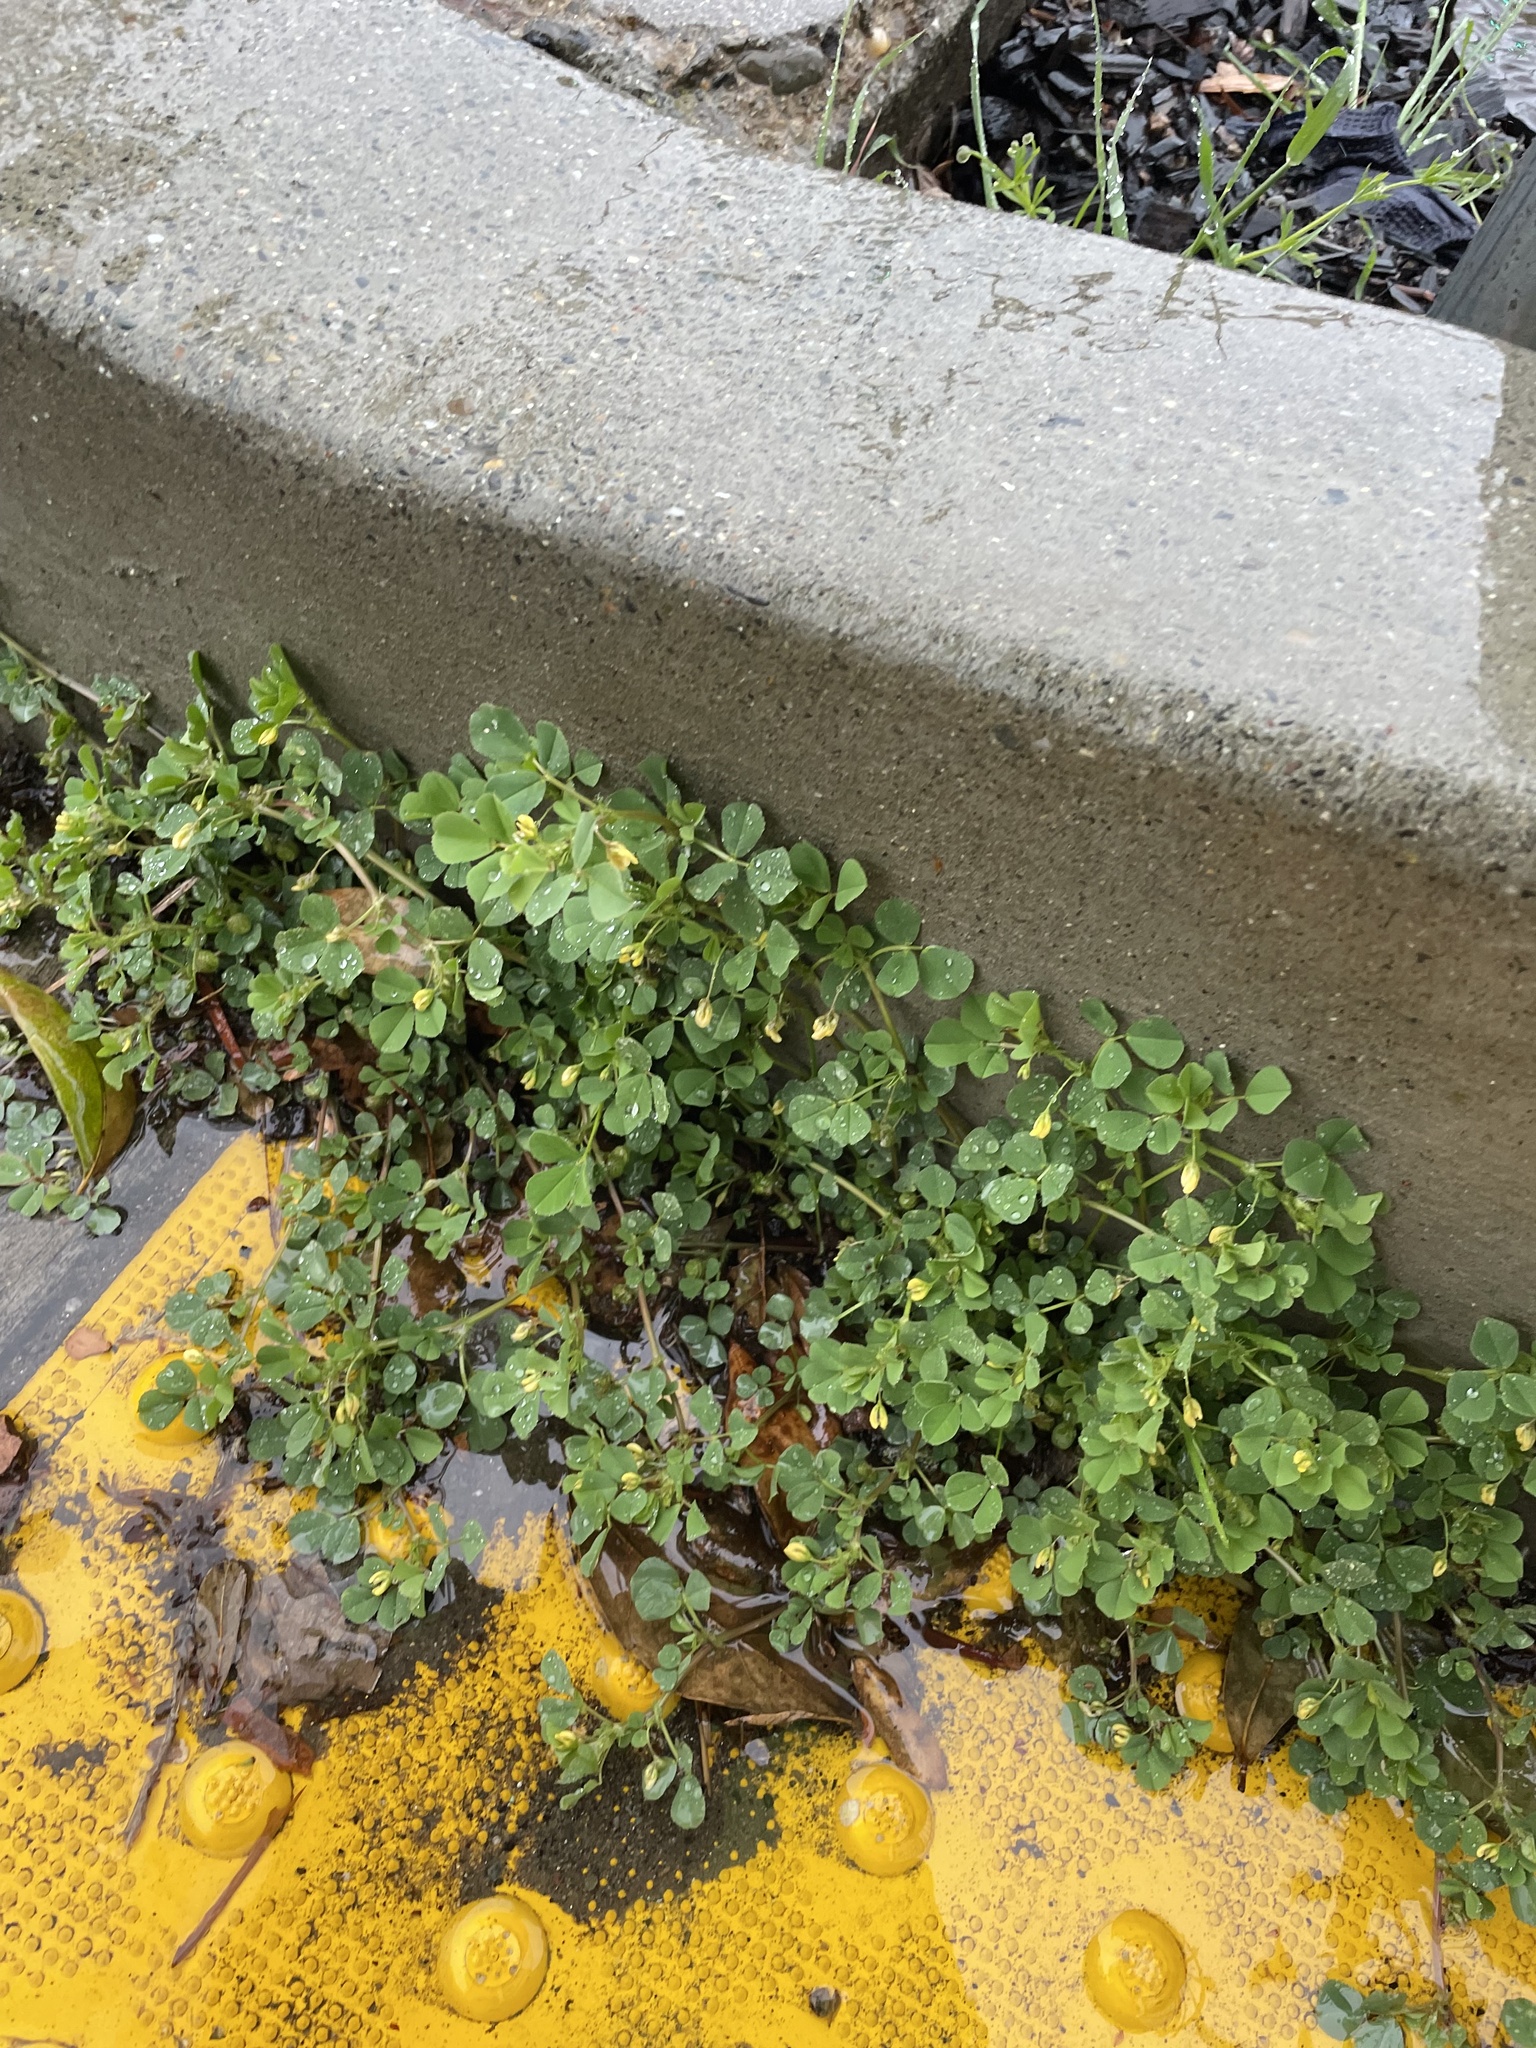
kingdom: Plantae
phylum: Tracheophyta
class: Magnoliopsida
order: Fabales
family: Fabaceae
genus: Medicago
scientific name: Medicago polymorpha
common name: Burclover
